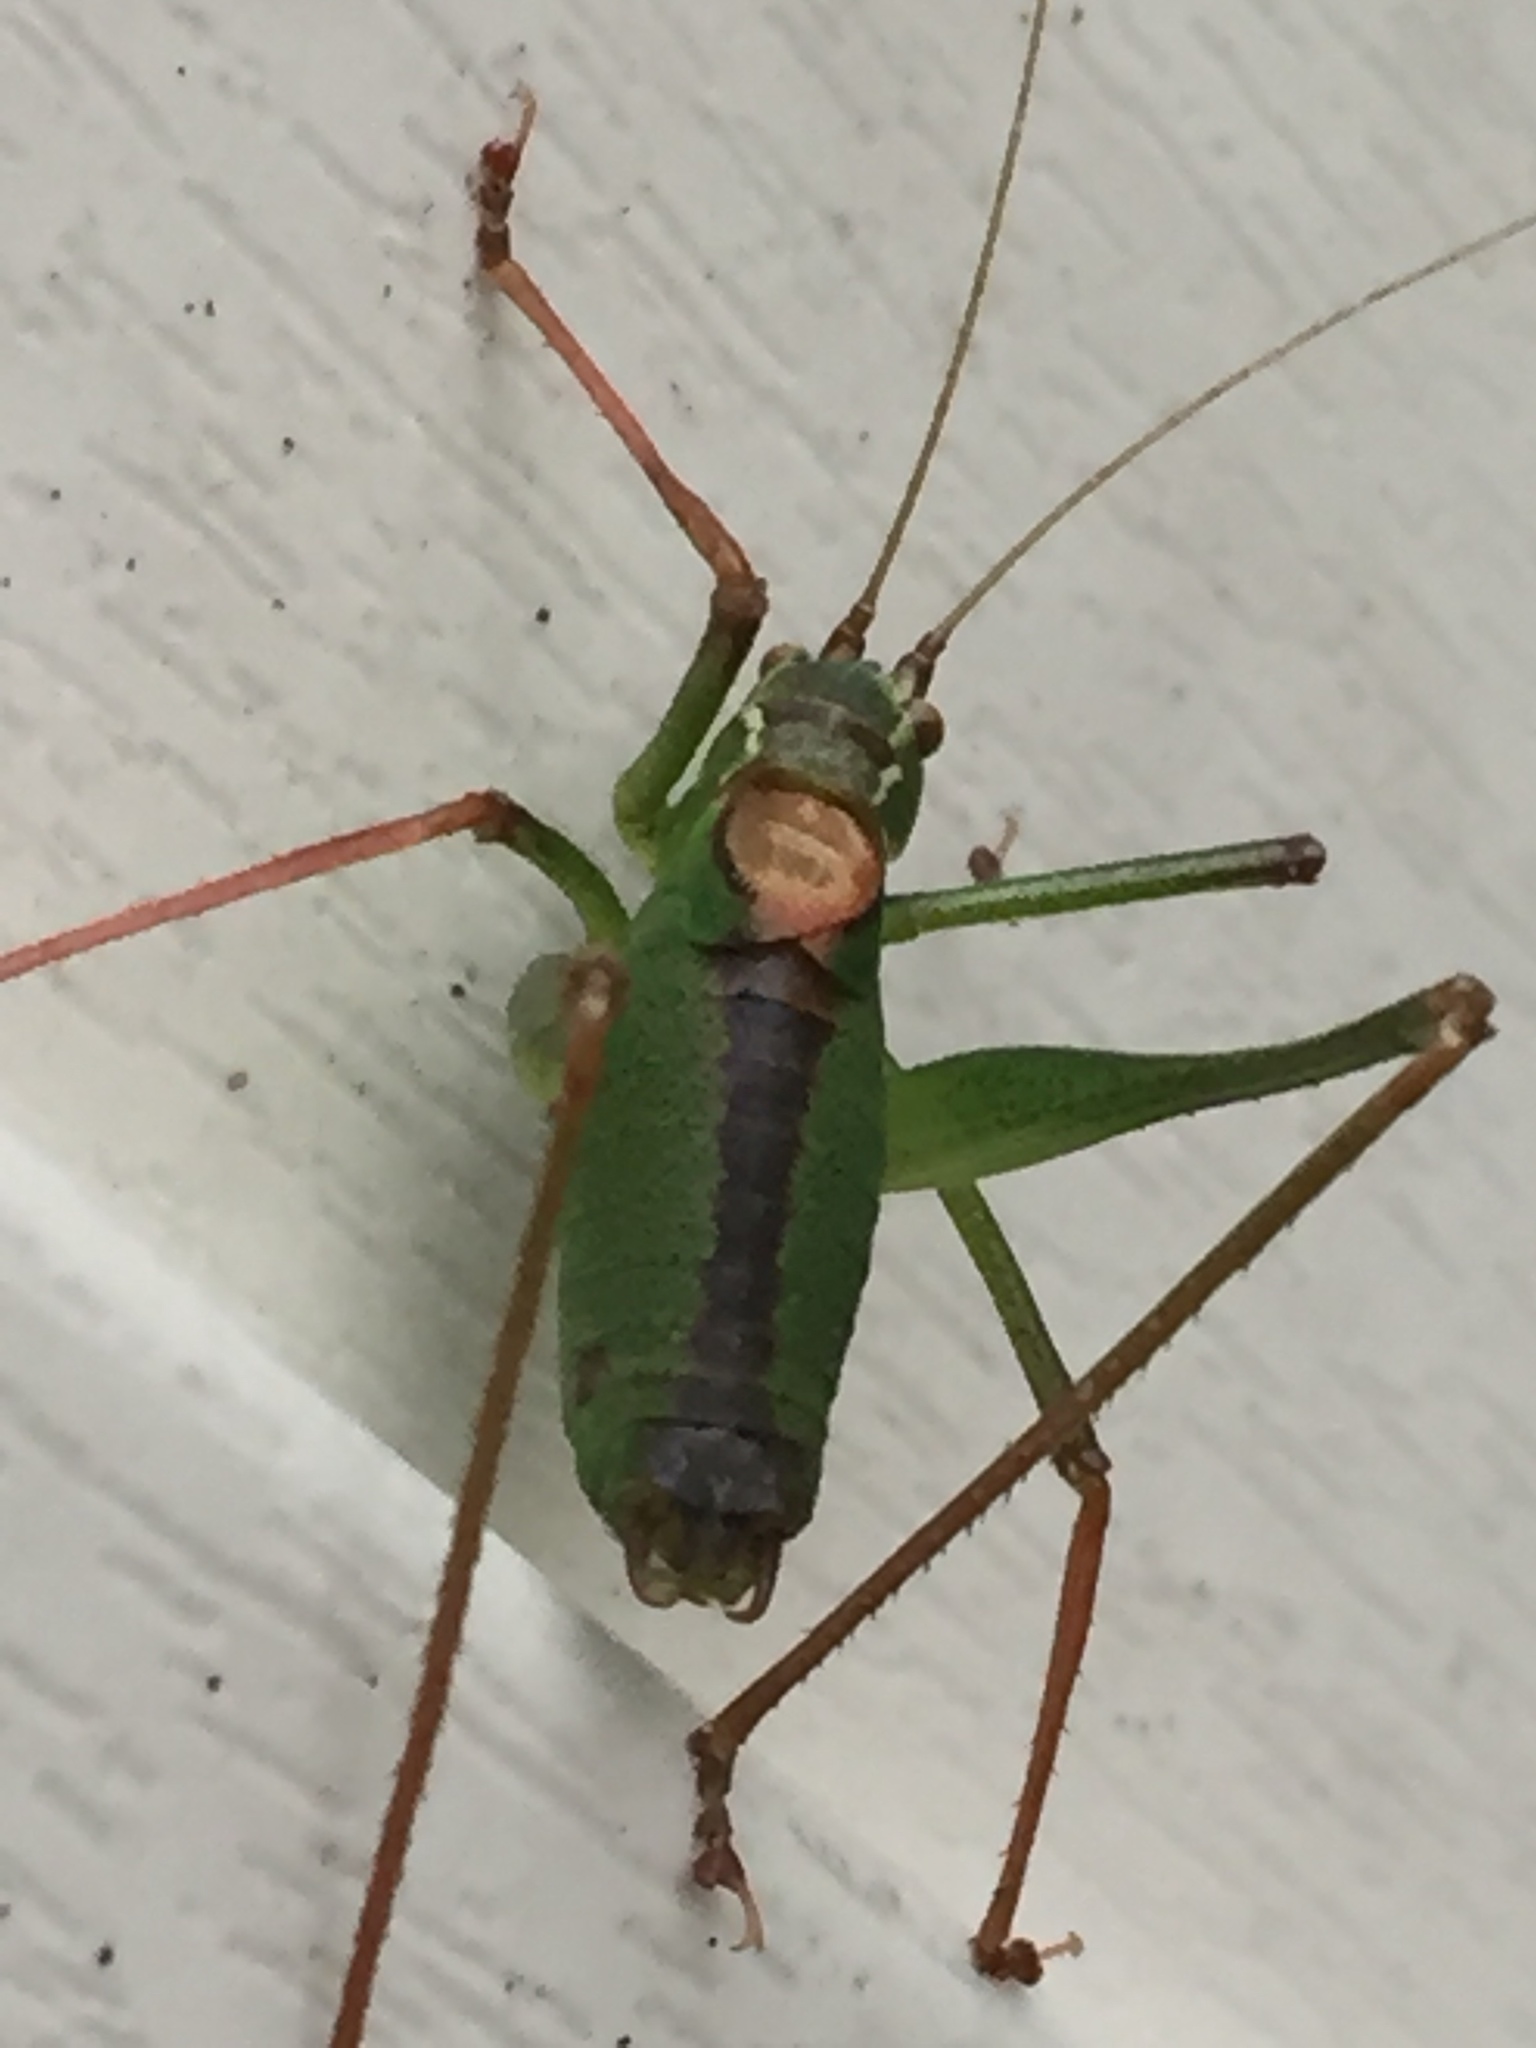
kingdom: Animalia
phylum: Arthropoda
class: Insecta
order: Orthoptera
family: Tettigoniidae
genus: Leptophyes
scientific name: Leptophyes punctatissima
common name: Speckled bush-cricket
